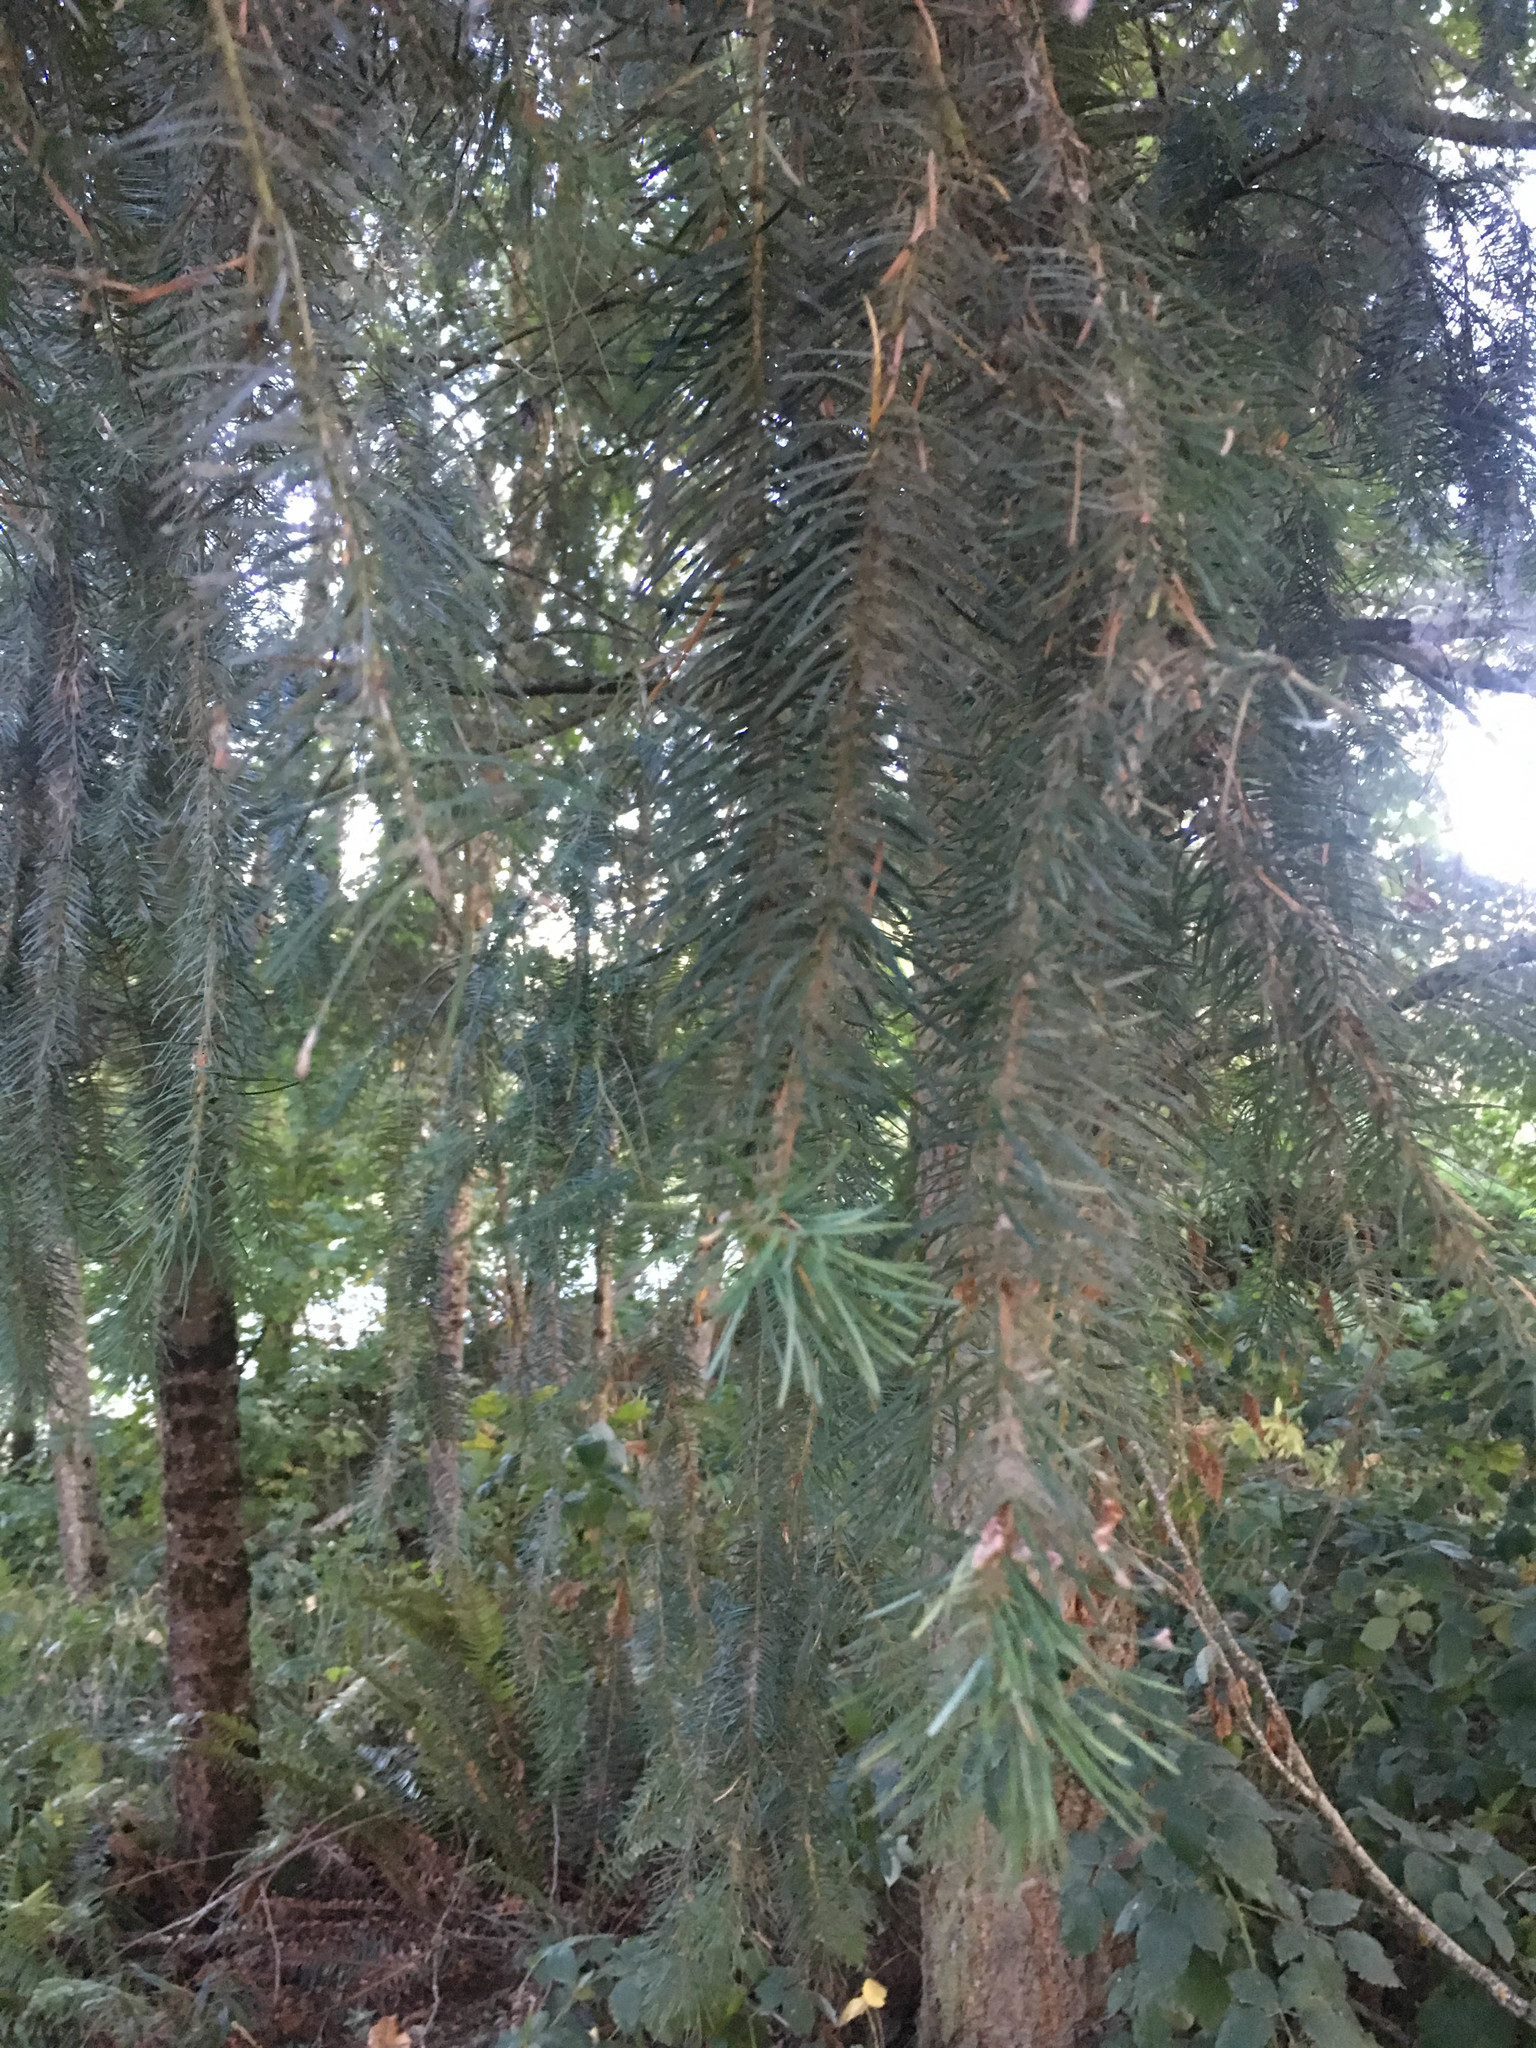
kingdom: Plantae
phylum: Tracheophyta
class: Pinopsida
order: Pinales
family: Pinaceae
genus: Pseudotsuga
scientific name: Pseudotsuga menziesii
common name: Douglas fir
